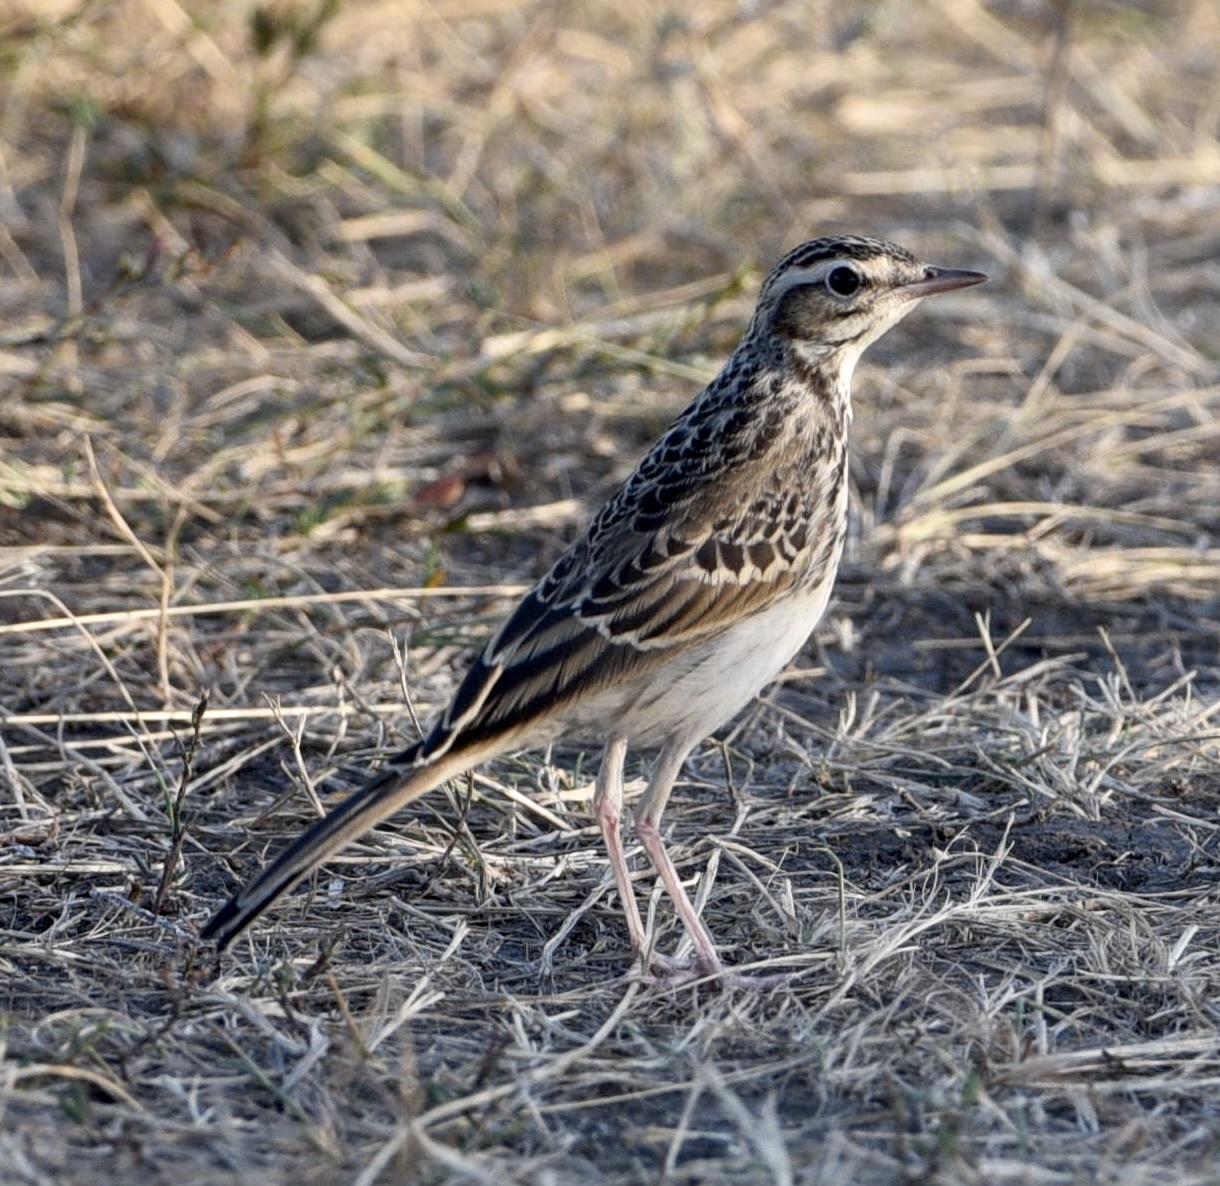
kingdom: Animalia
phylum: Chordata
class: Aves
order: Passeriformes
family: Motacillidae
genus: Anthus
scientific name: Anthus campestris
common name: Tawny pipit
